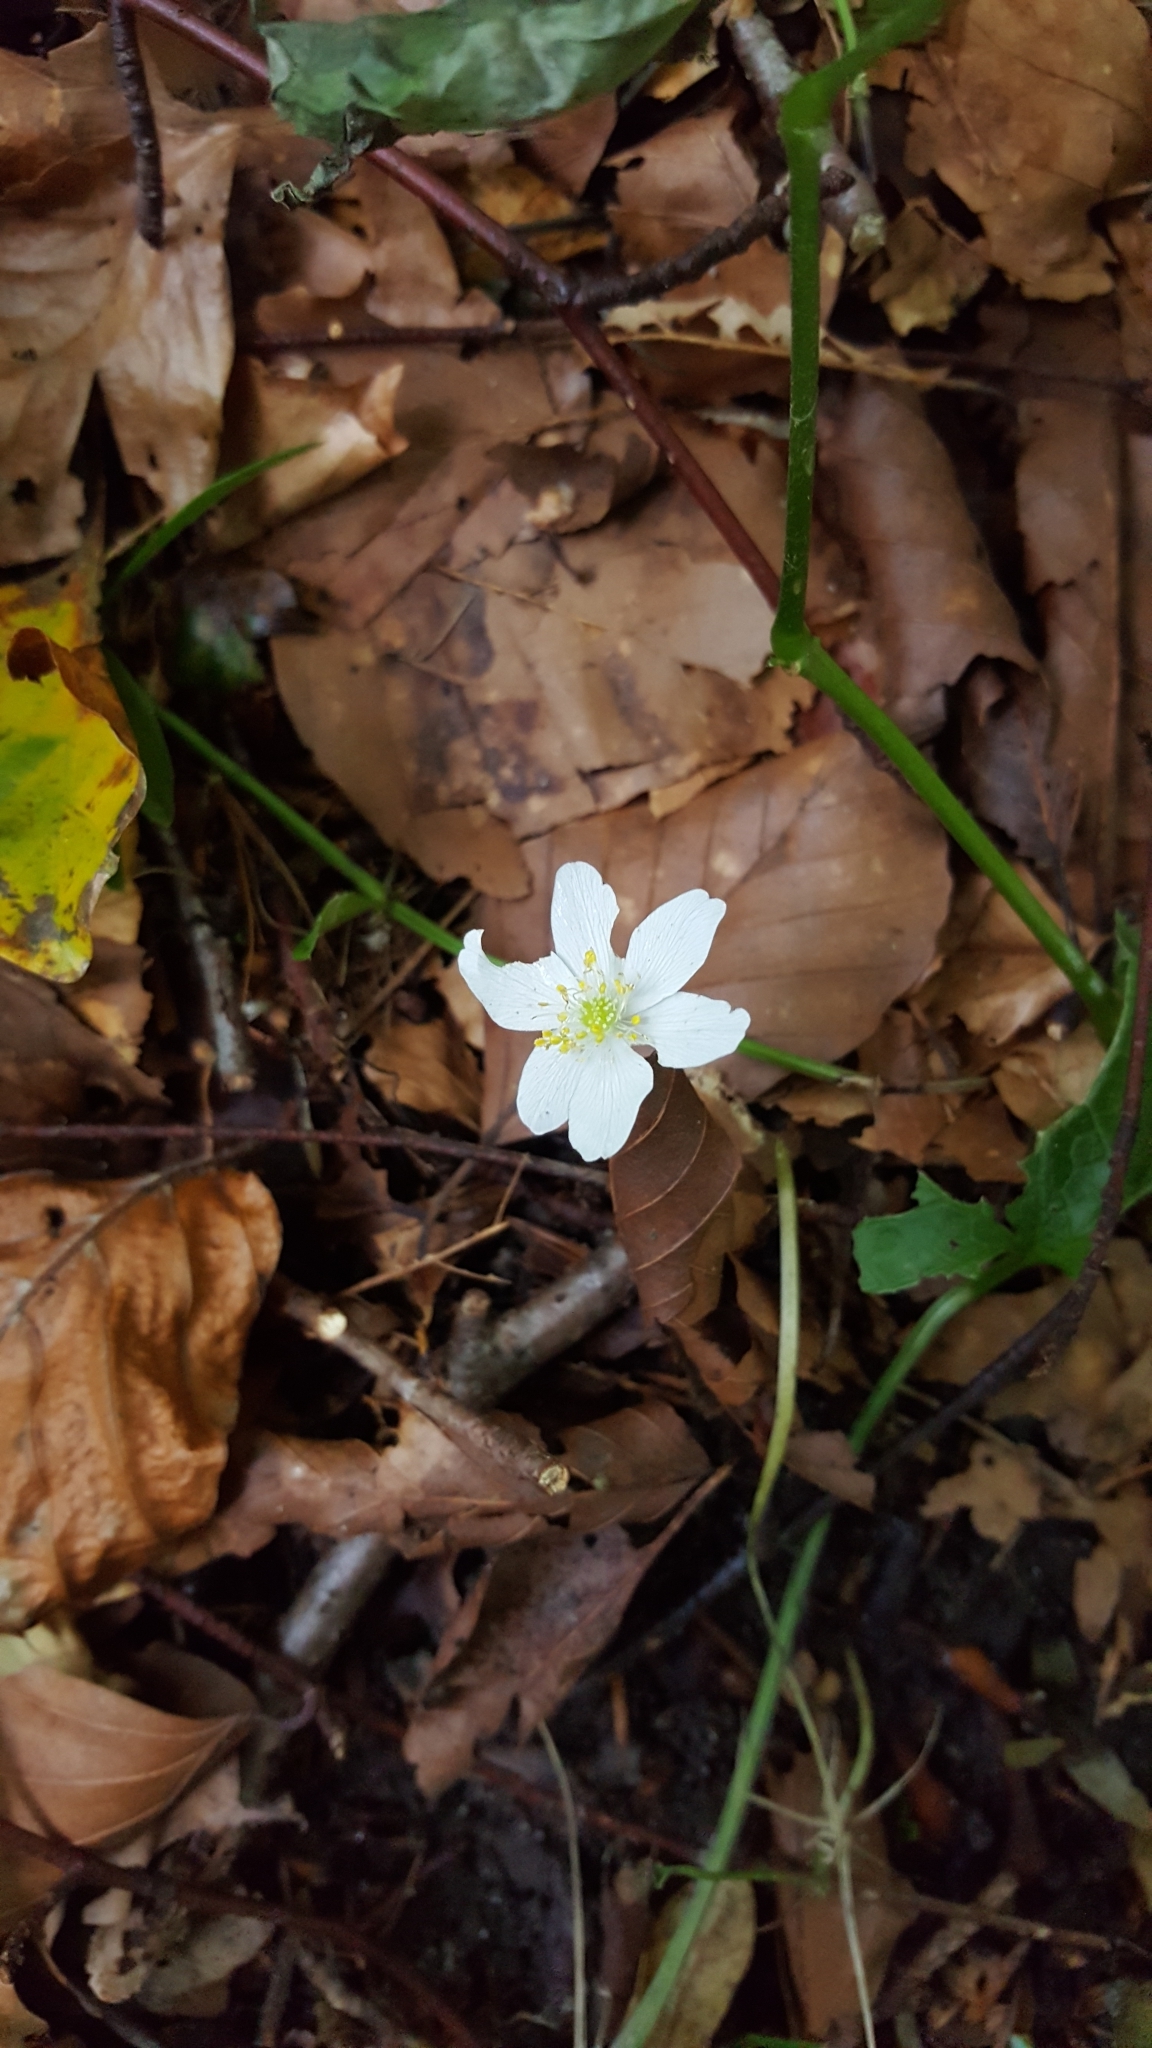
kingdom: Plantae
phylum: Tracheophyta
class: Magnoliopsida
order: Ranunculales
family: Ranunculaceae
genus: Anemone
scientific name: Anemone nemorosa
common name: Wood anemone
